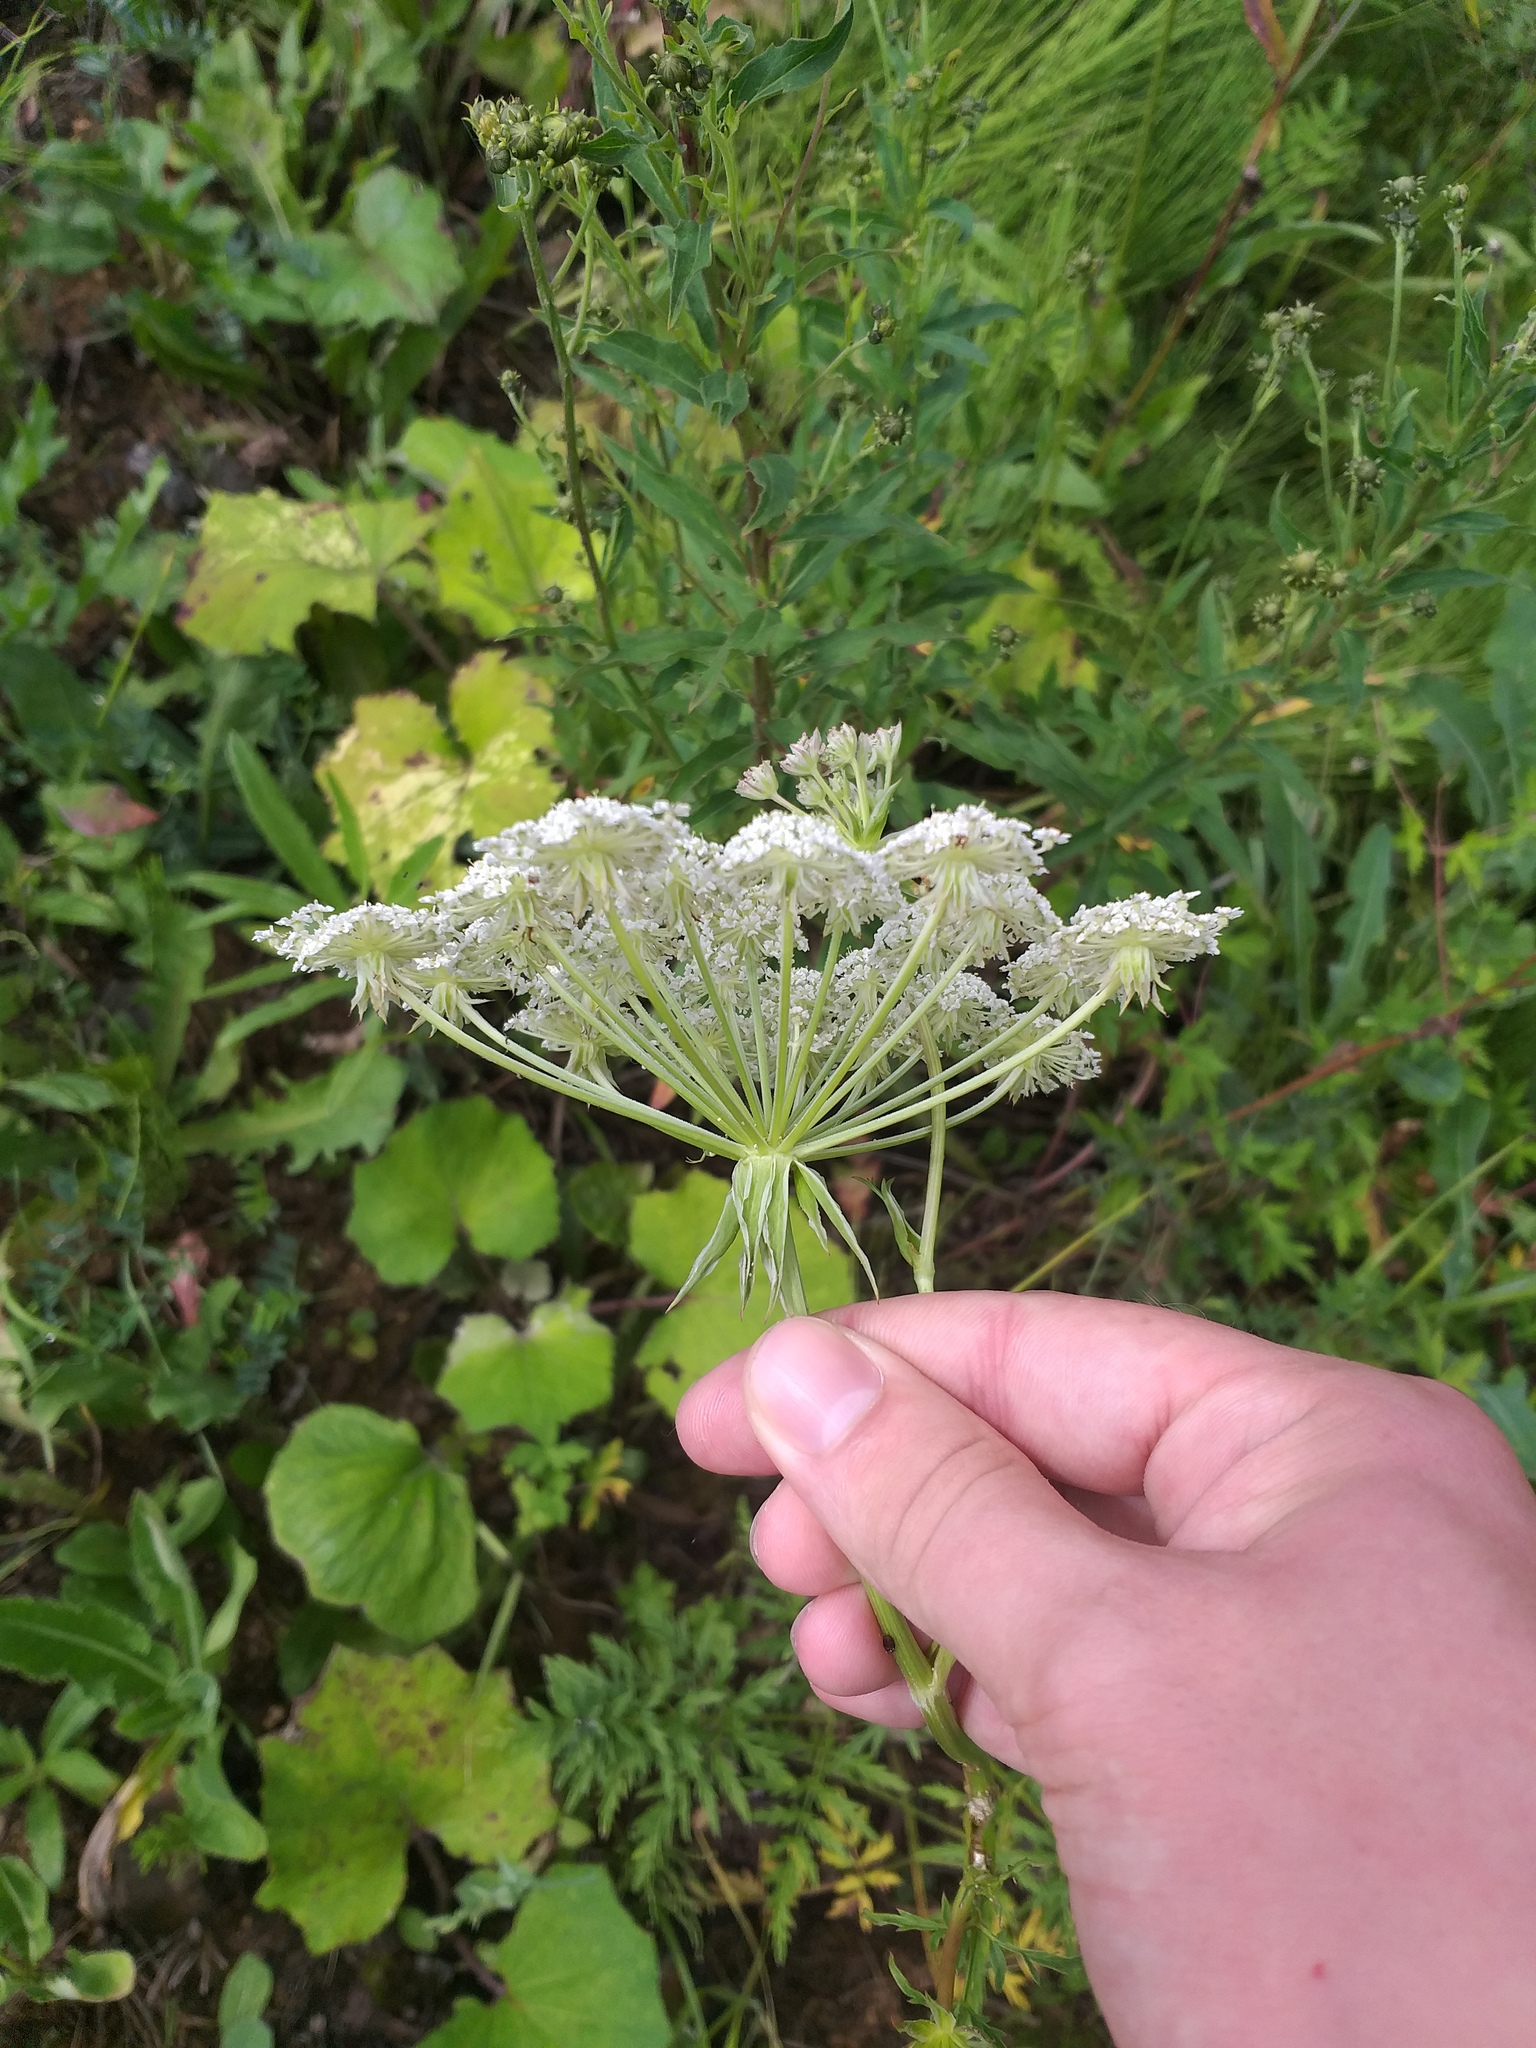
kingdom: Plantae
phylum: Tracheophyta
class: Magnoliopsida
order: Apiales
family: Apiaceae
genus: Silphiodaucus
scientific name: Silphiodaucus prutenicus
